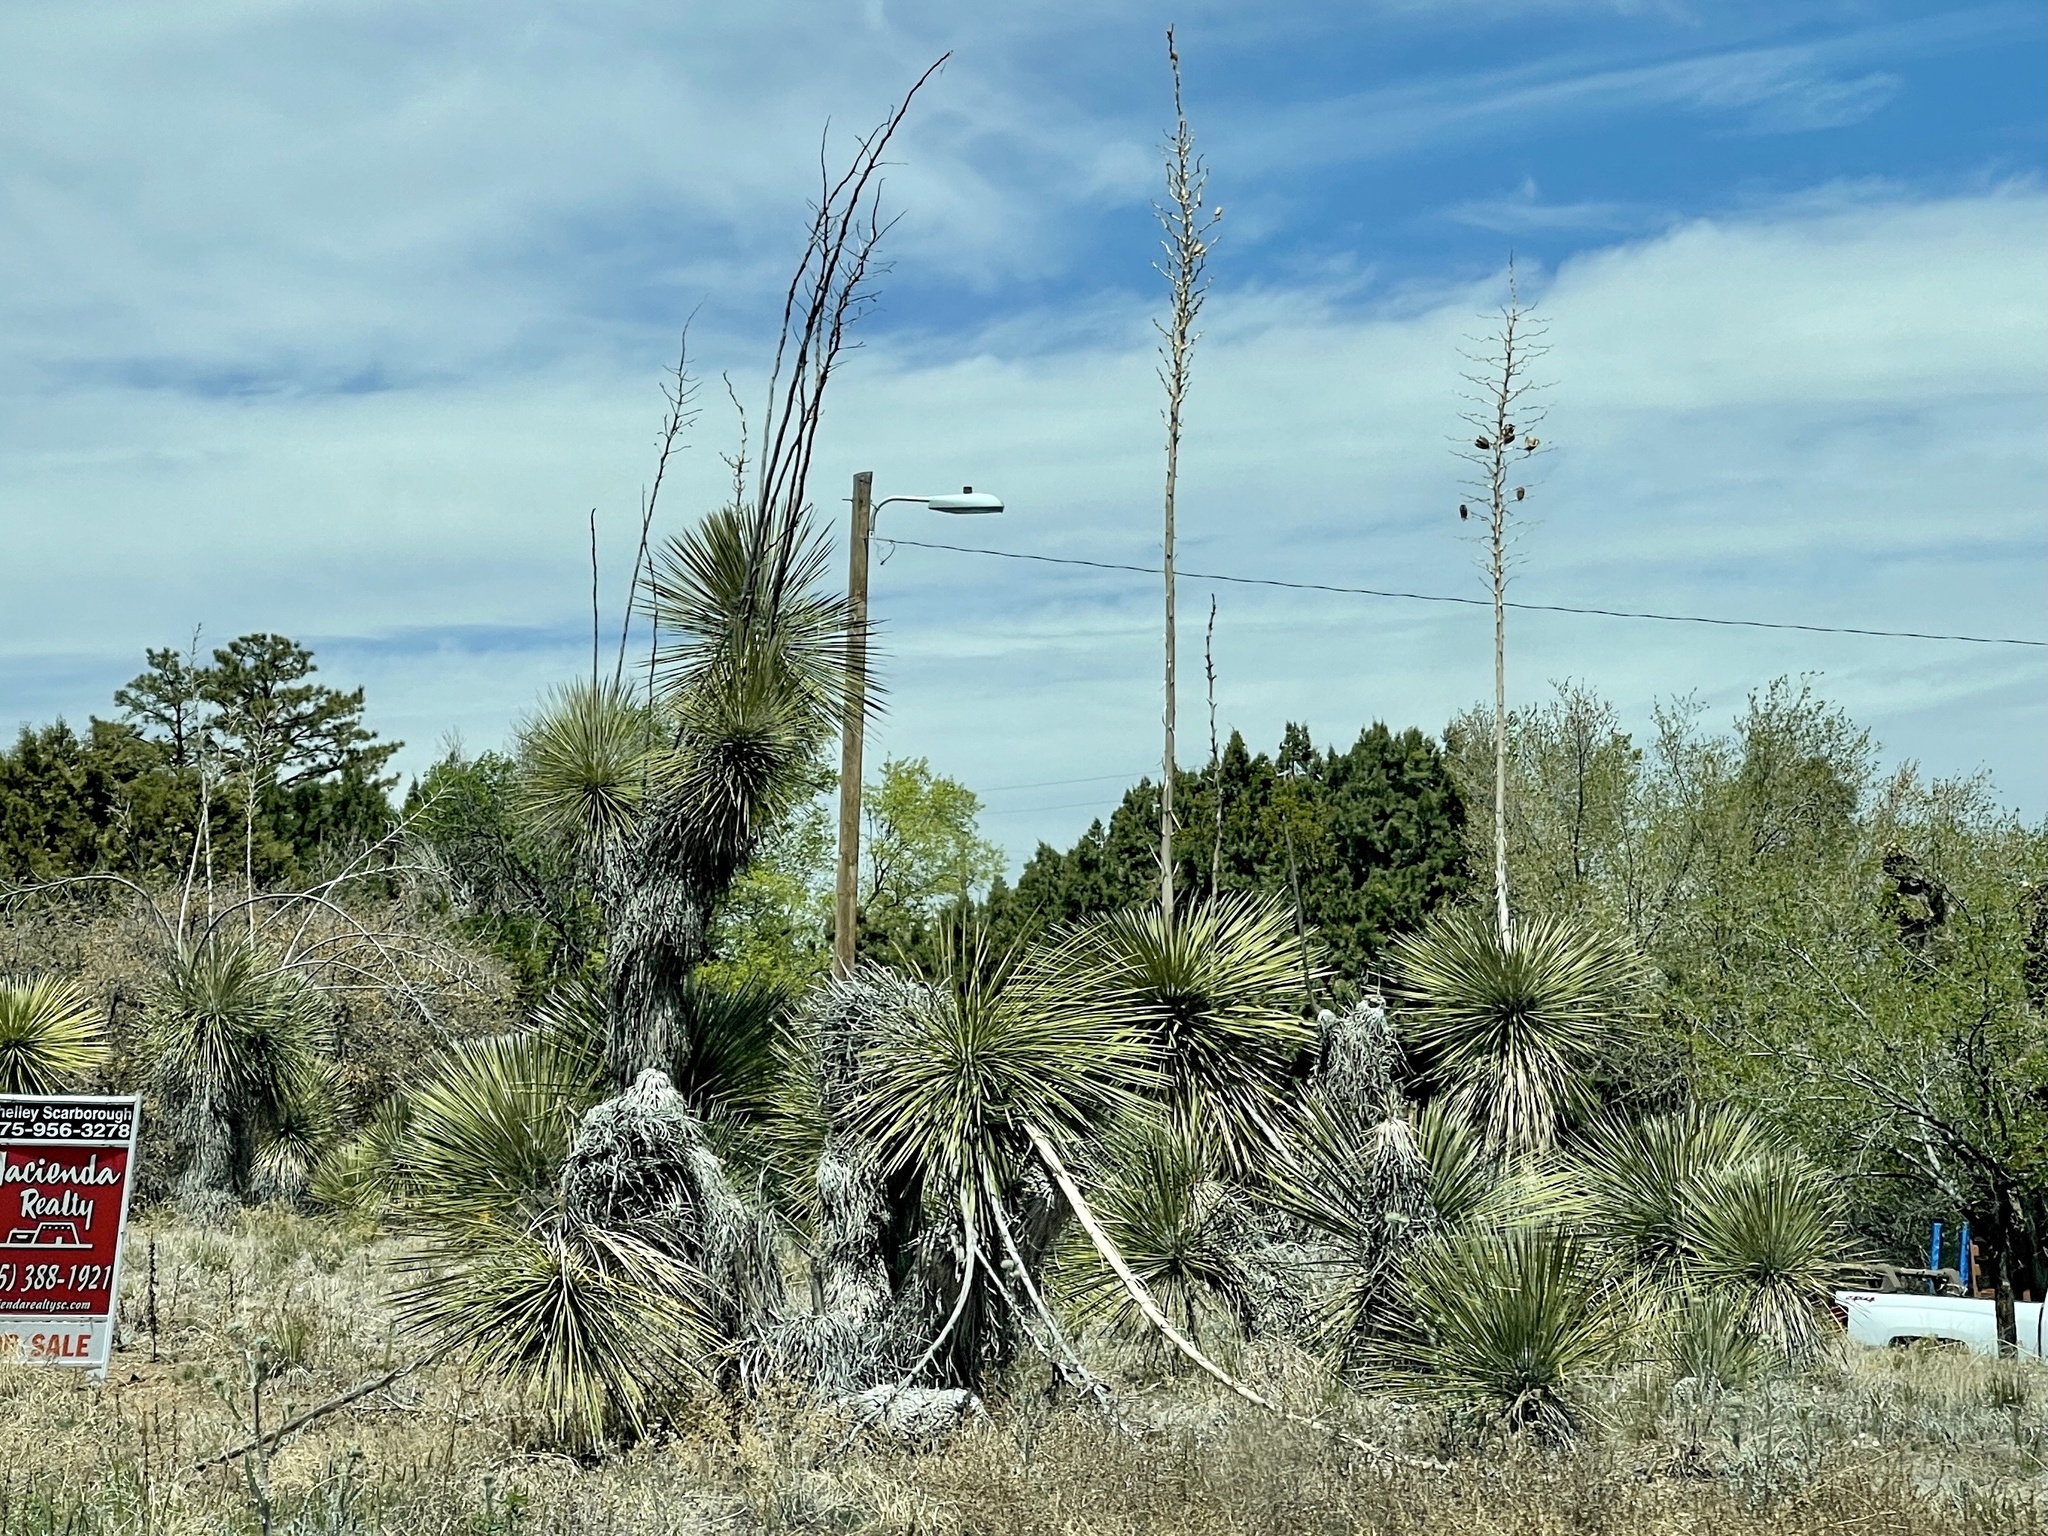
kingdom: Plantae
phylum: Tracheophyta
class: Liliopsida
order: Asparagales
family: Asparagaceae
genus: Yucca
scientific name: Yucca elata
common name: Palmella
